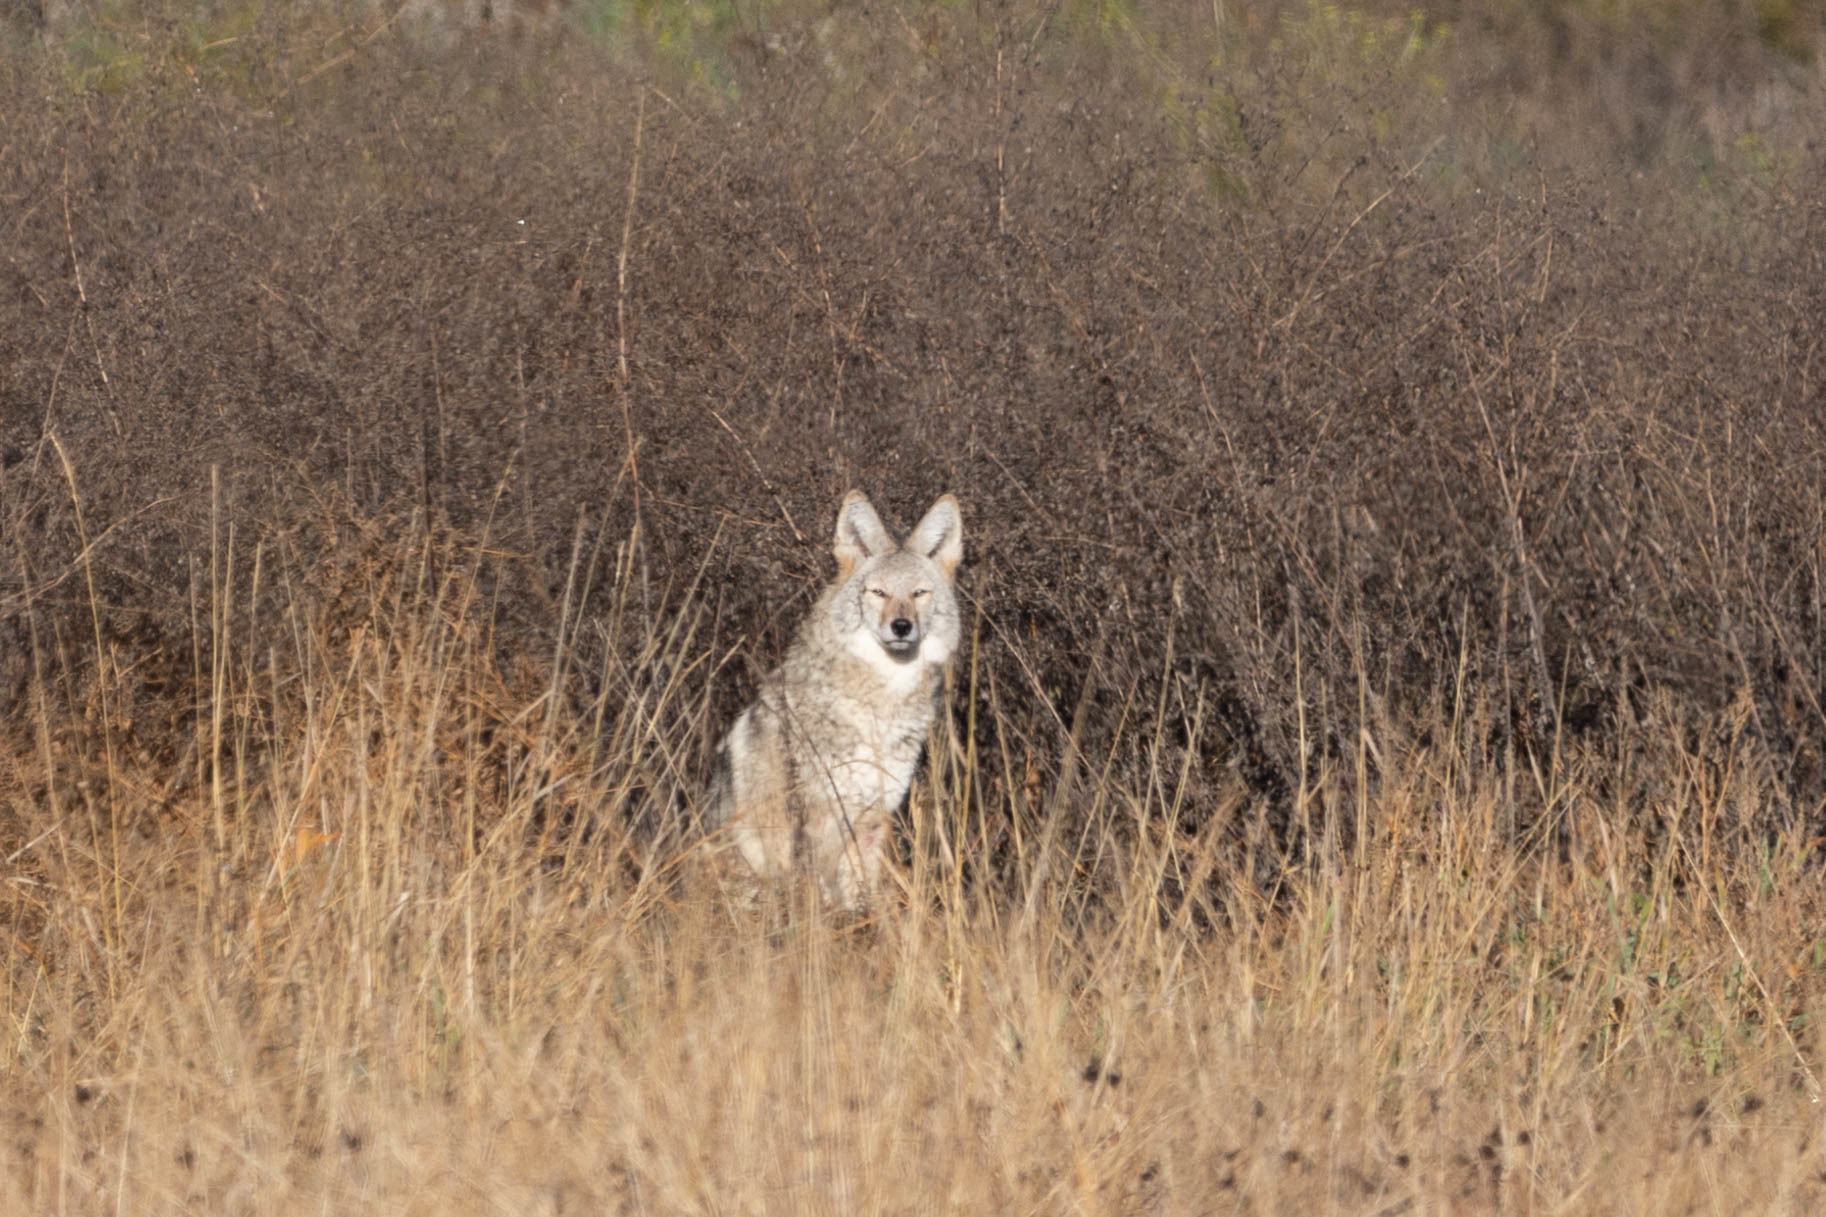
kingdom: Animalia
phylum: Chordata
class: Mammalia
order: Carnivora
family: Canidae
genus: Canis
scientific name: Canis latrans
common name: Coyote
